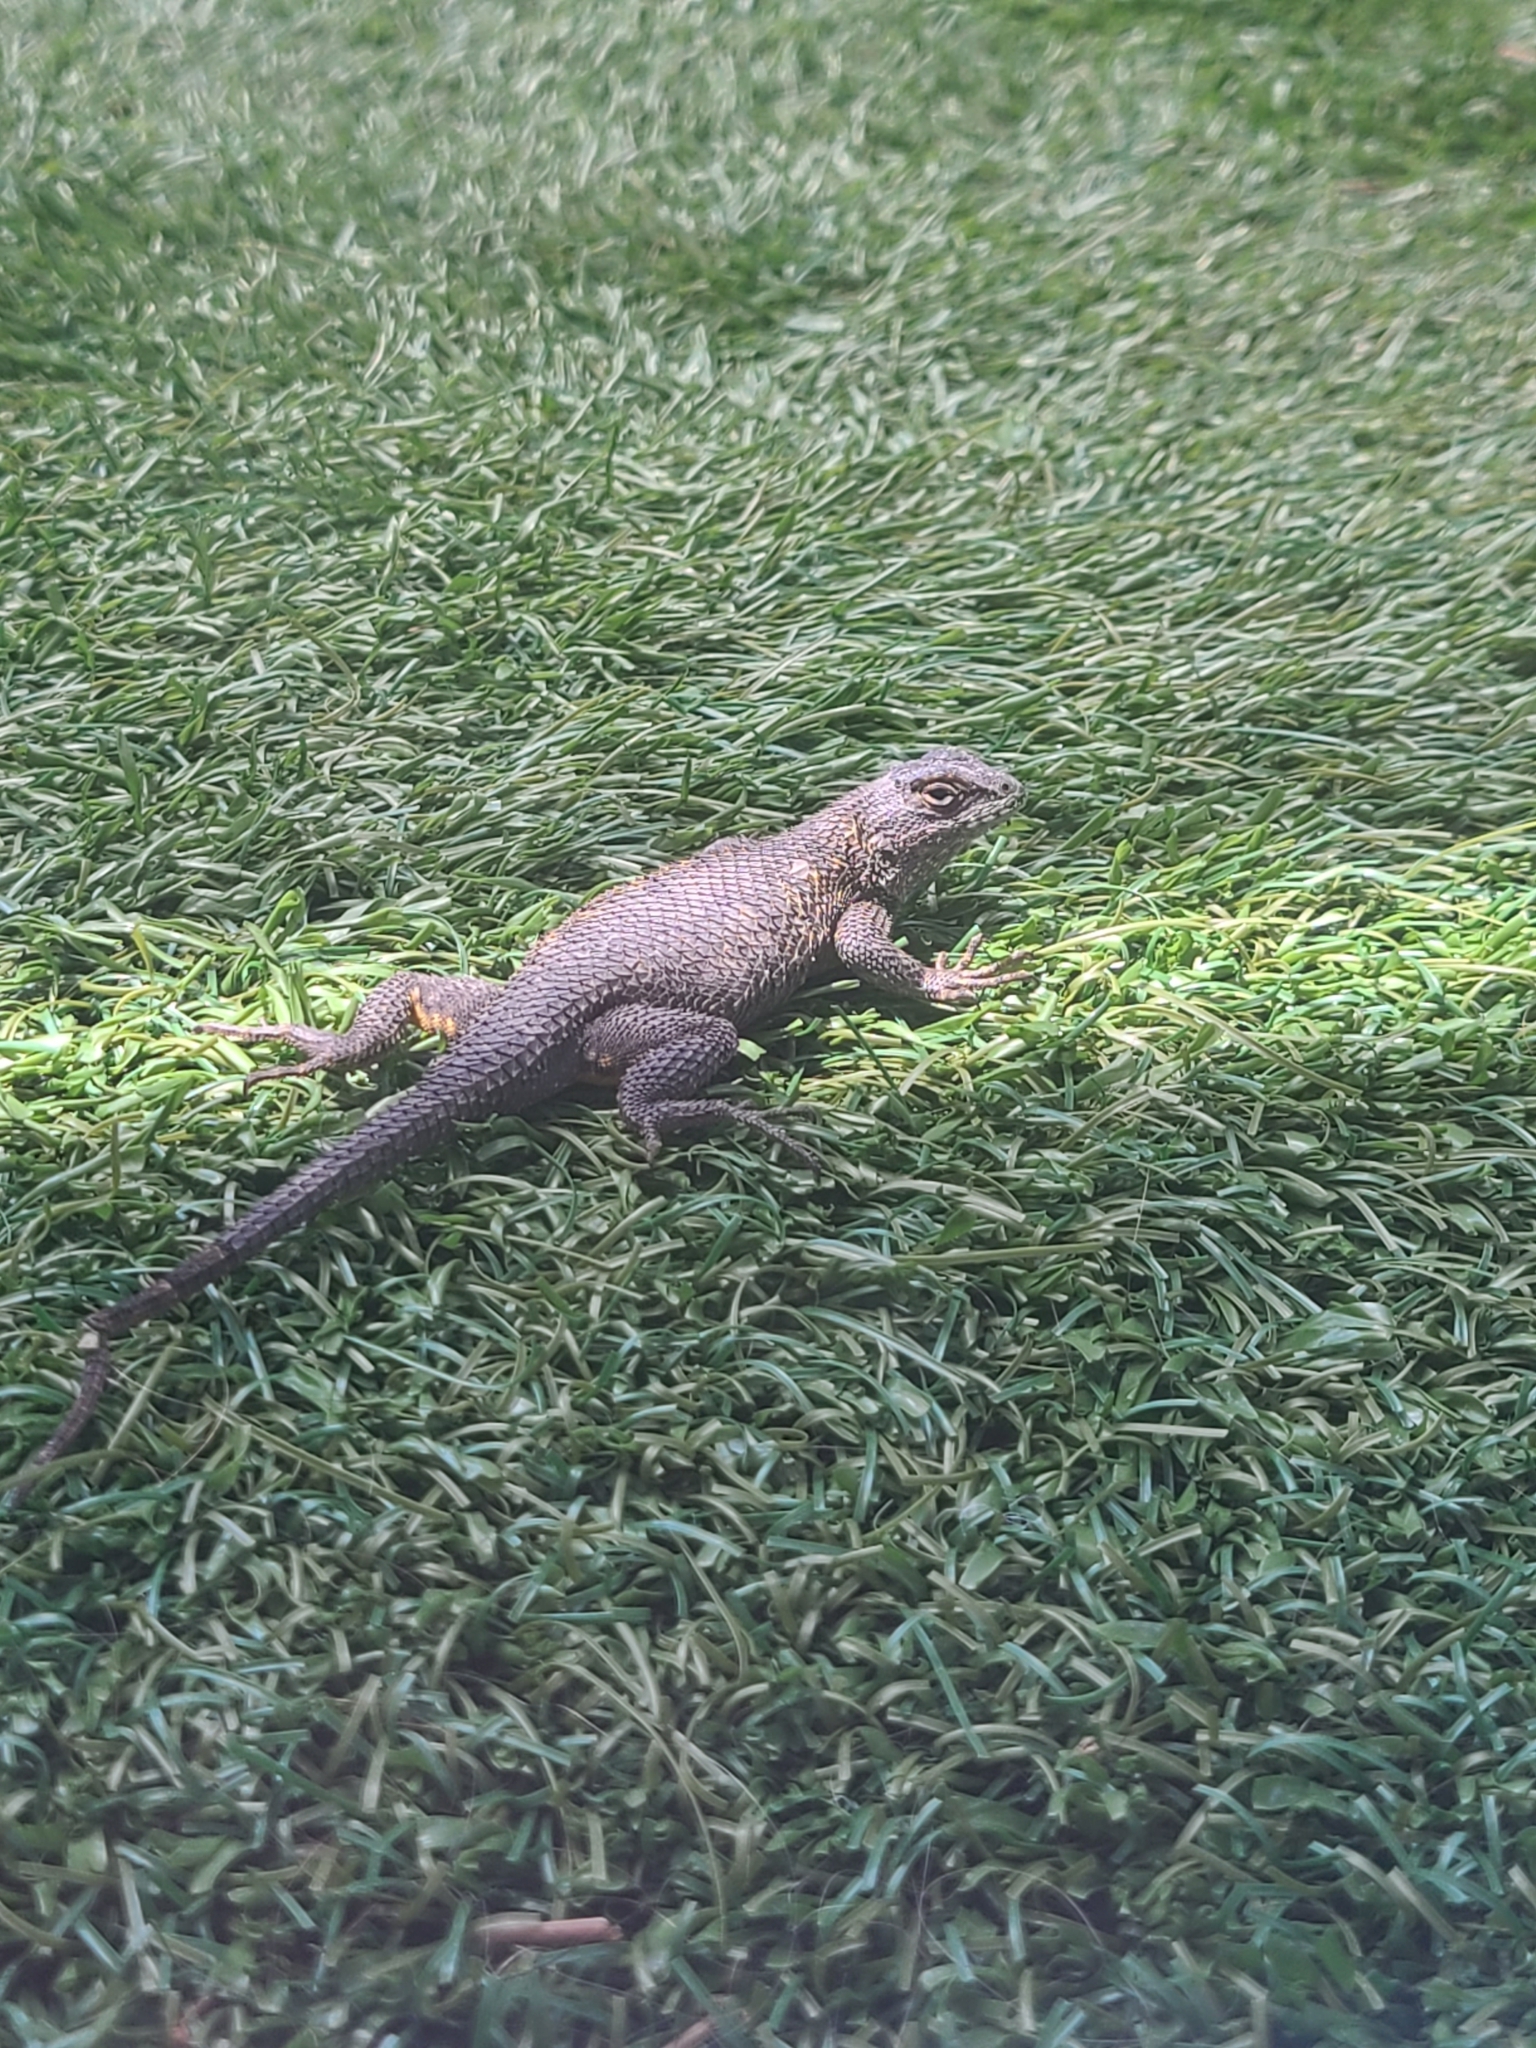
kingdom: Animalia
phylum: Chordata
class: Squamata
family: Phrynosomatidae
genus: Sceloporus
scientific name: Sceloporus occidentalis
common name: Western fence lizard
